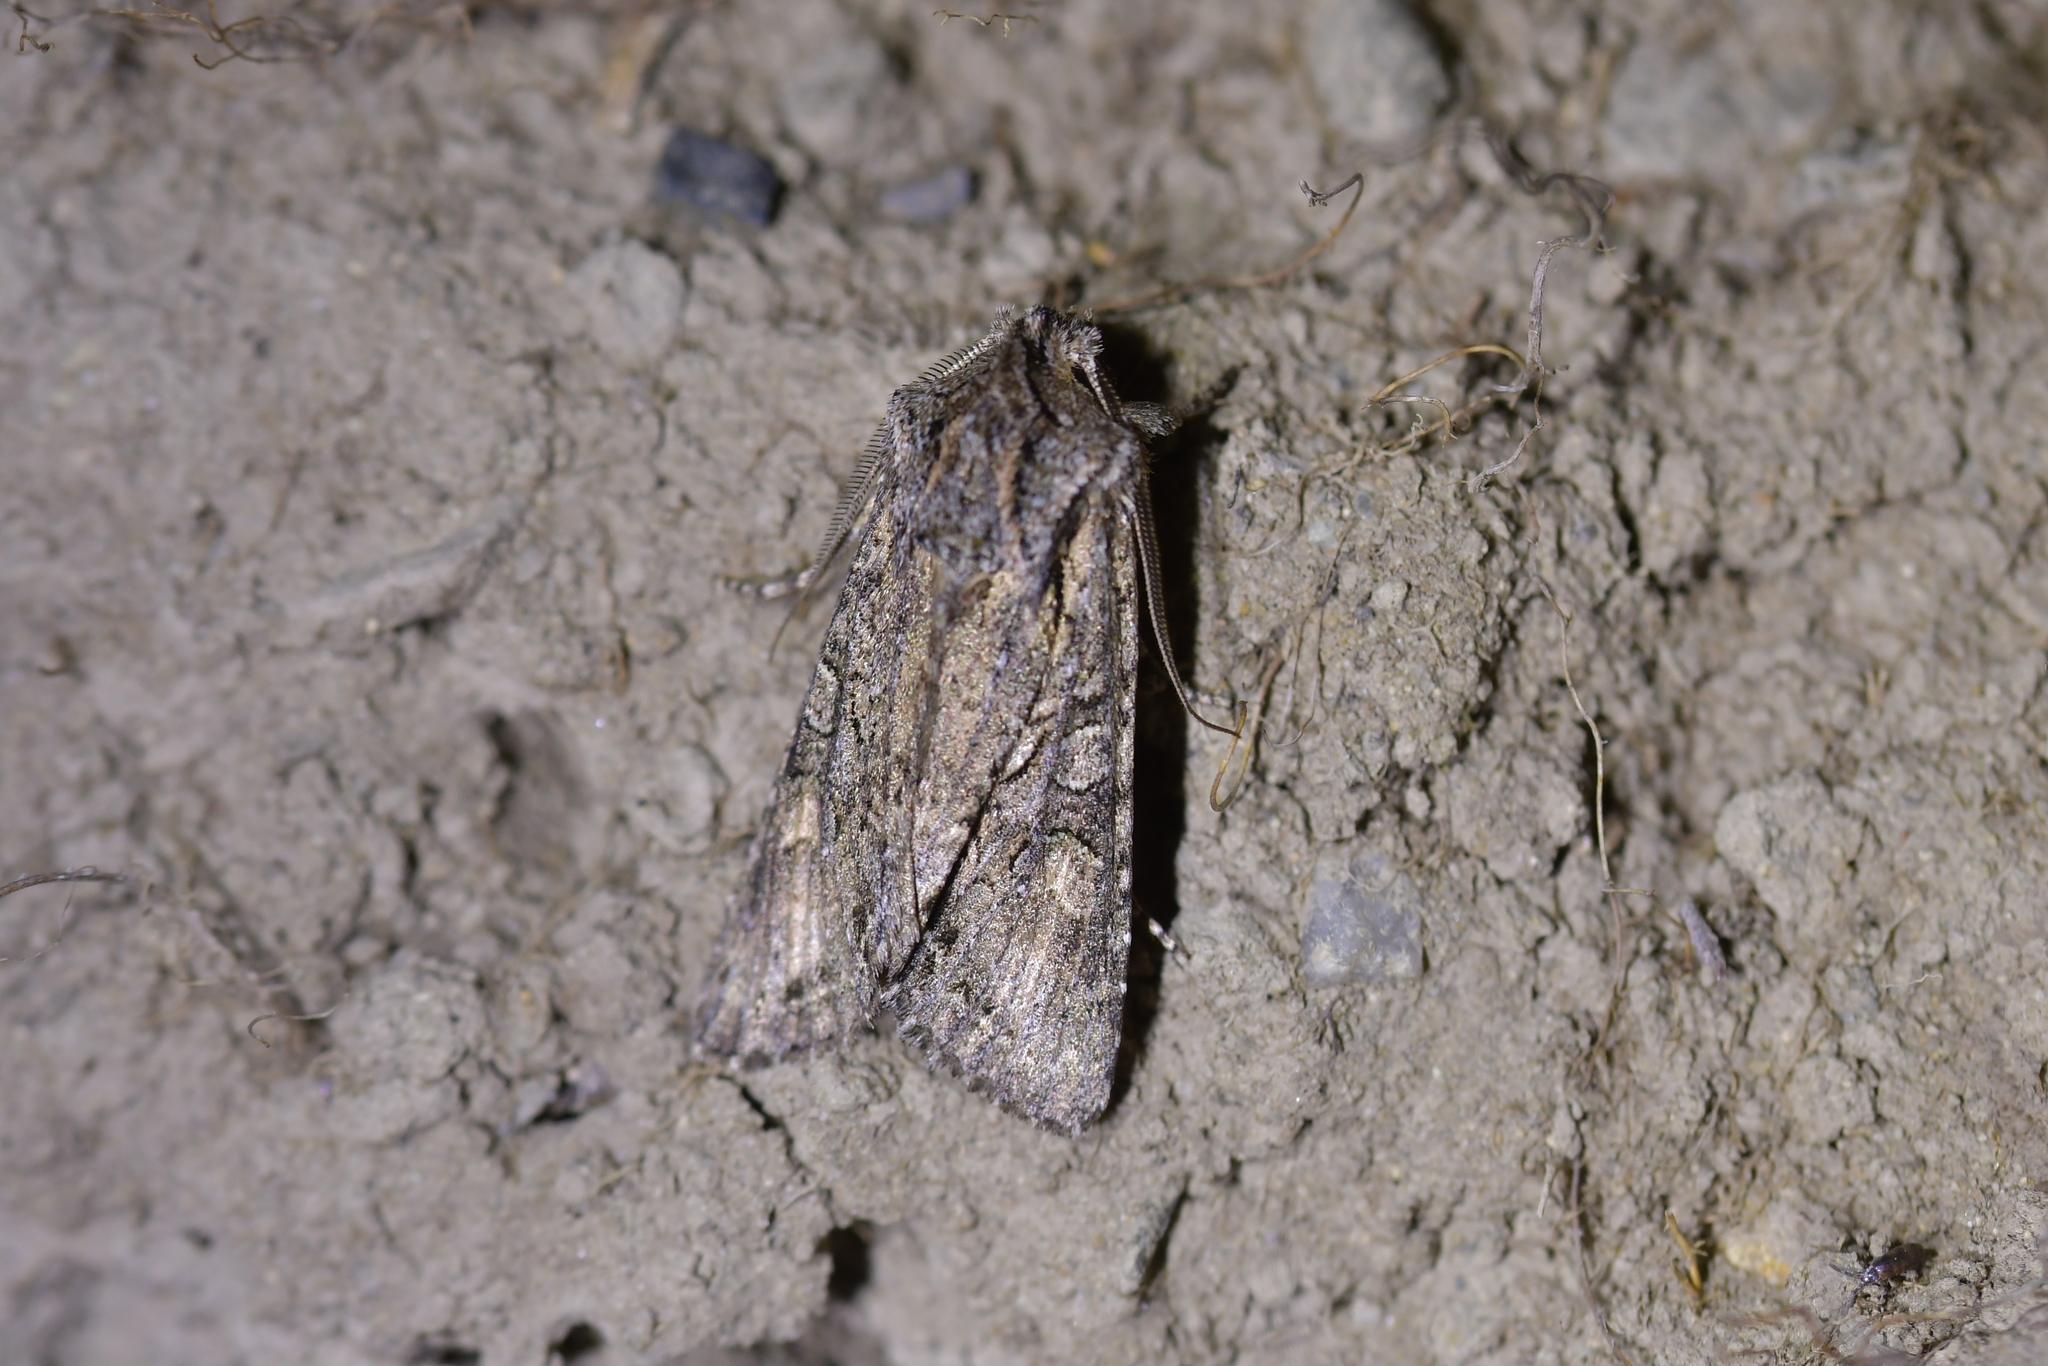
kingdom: Animalia
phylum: Arthropoda
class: Insecta
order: Lepidoptera
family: Noctuidae
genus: Ichneutica
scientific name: Ichneutica mutans
